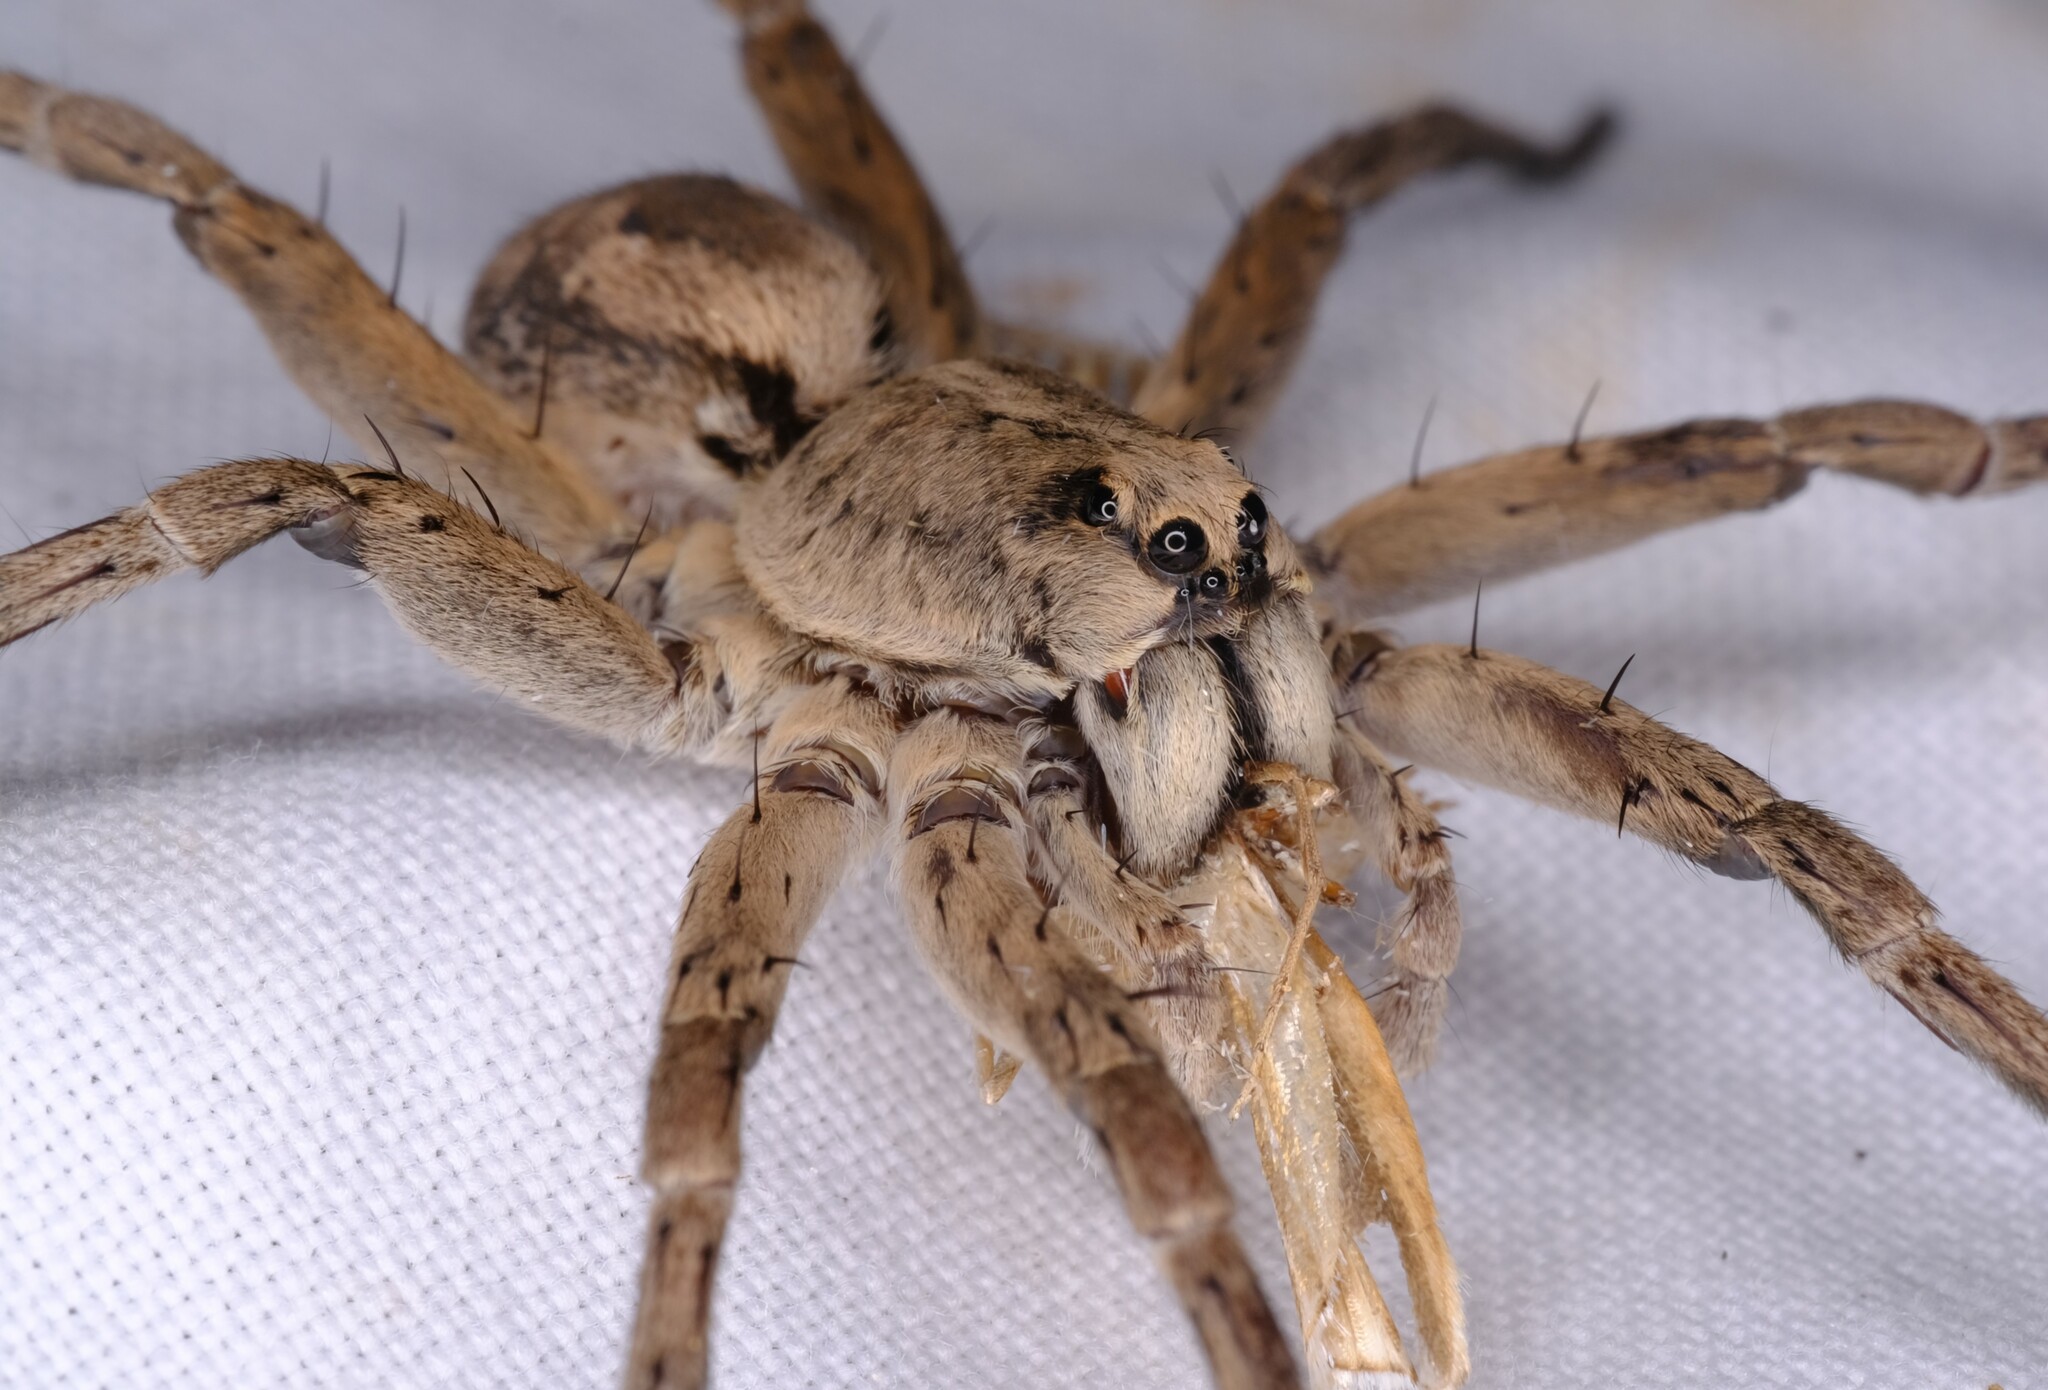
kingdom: Animalia
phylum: Arthropoda
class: Arachnida
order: Araneae
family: Lycosidae
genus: Portacosa
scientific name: Portacosa cinerea
